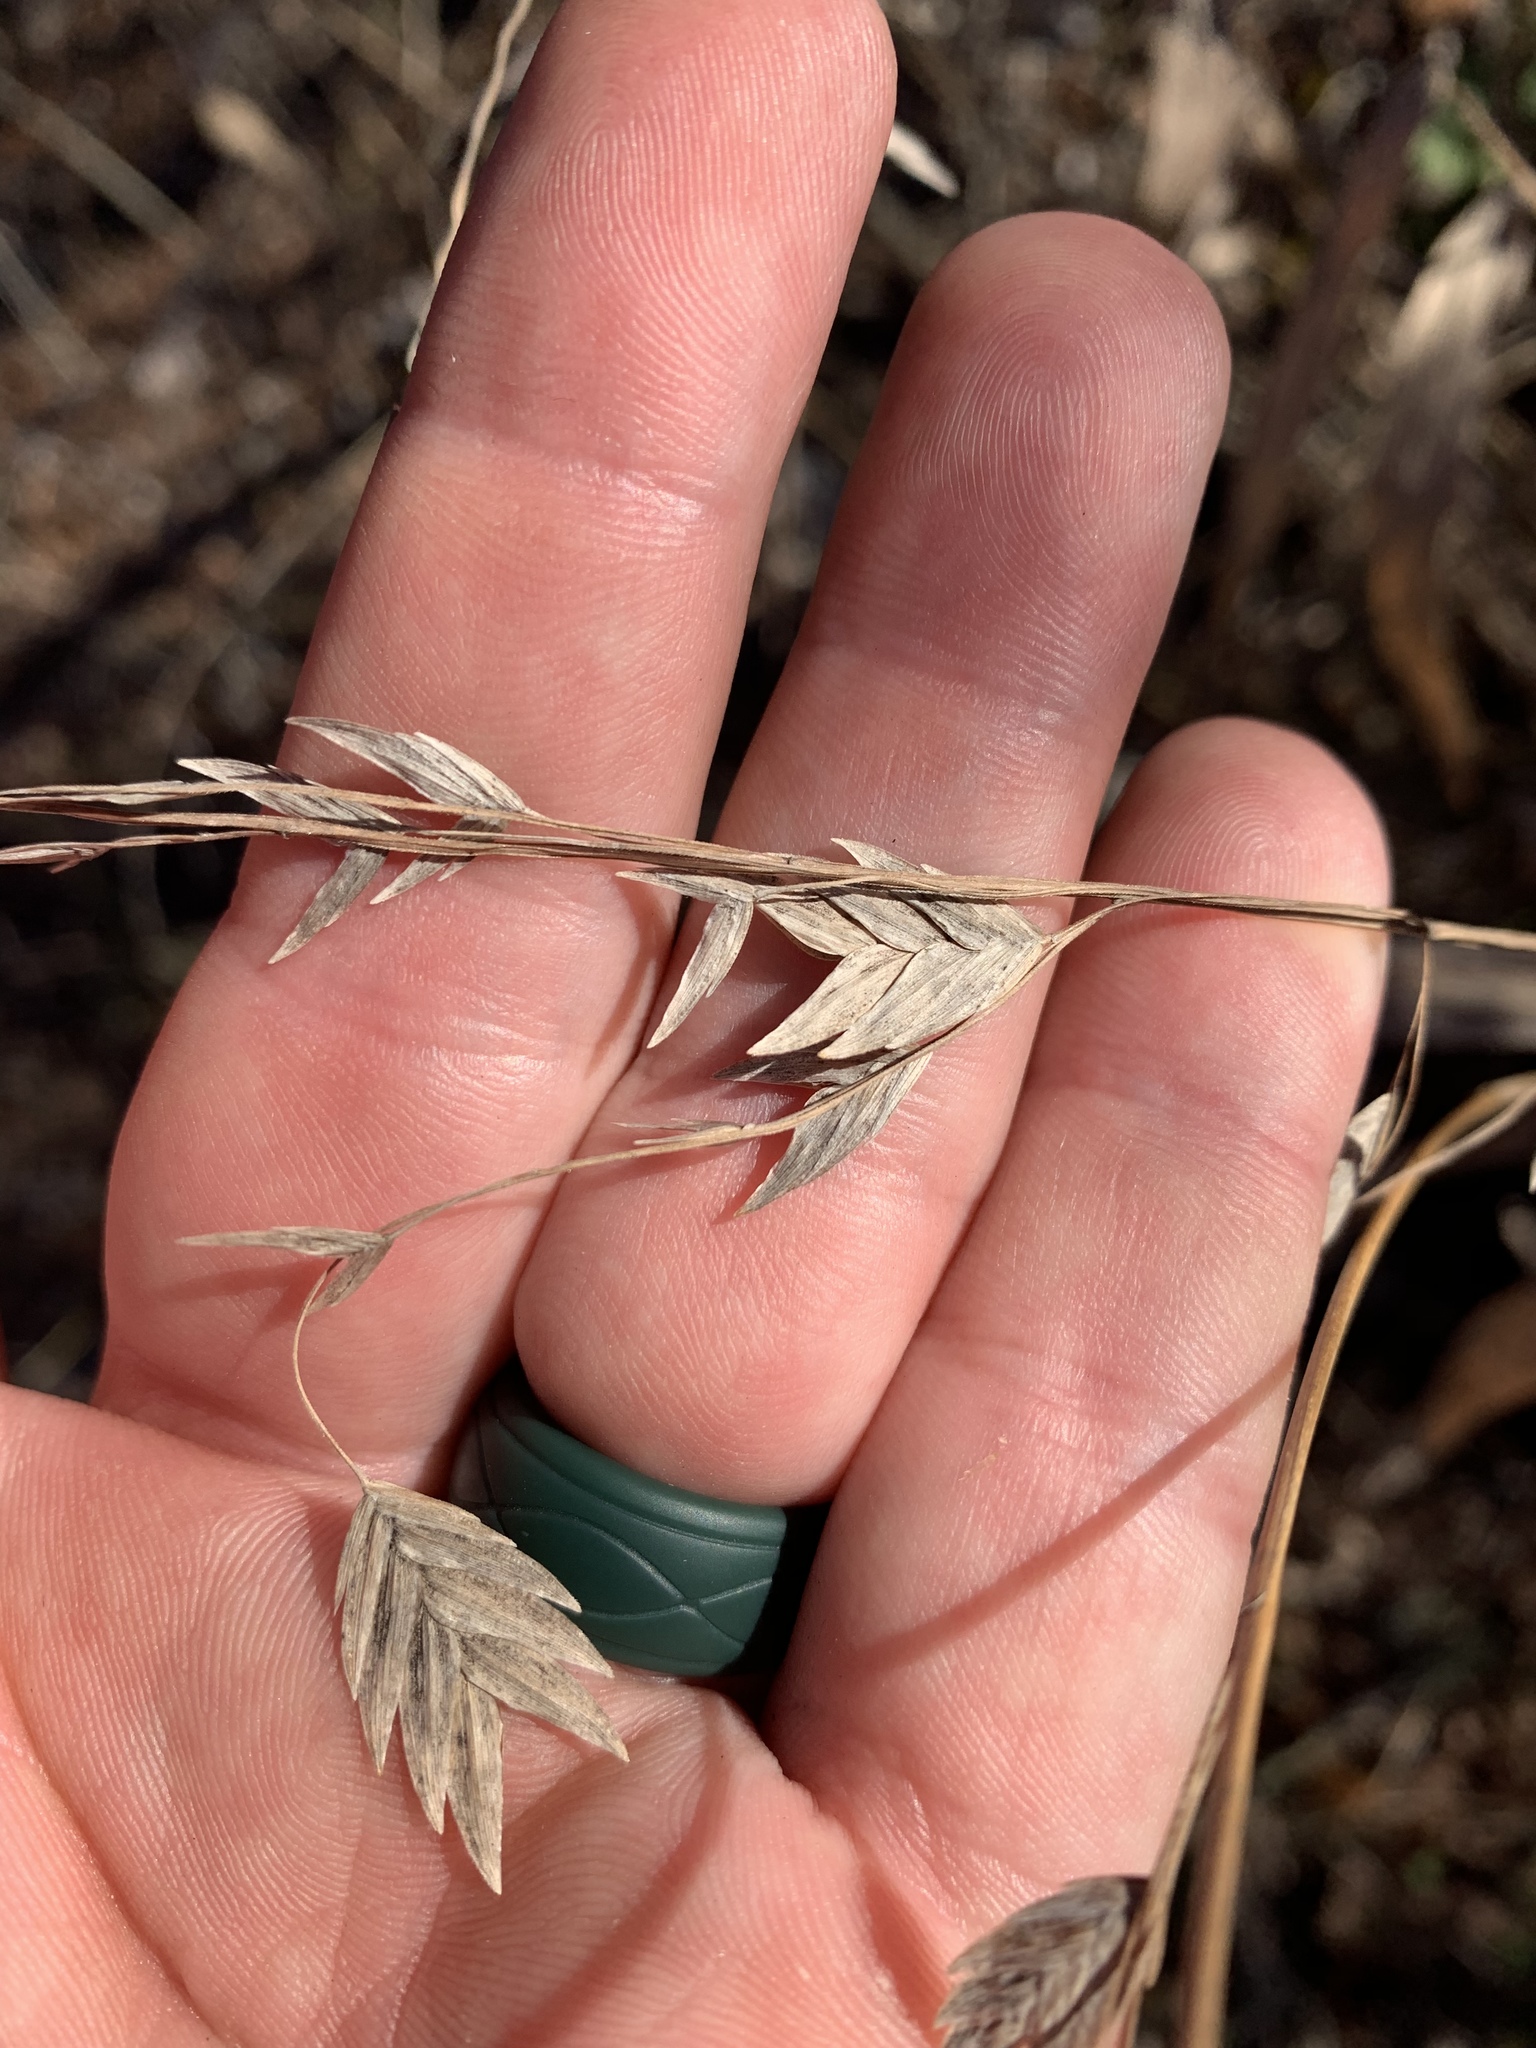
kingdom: Plantae
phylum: Tracheophyta
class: Liliopsida
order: Poales
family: Poaceae
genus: Chasmanthium
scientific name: Chasmanthium latifolium
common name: Broad-leaved chasmanthium
